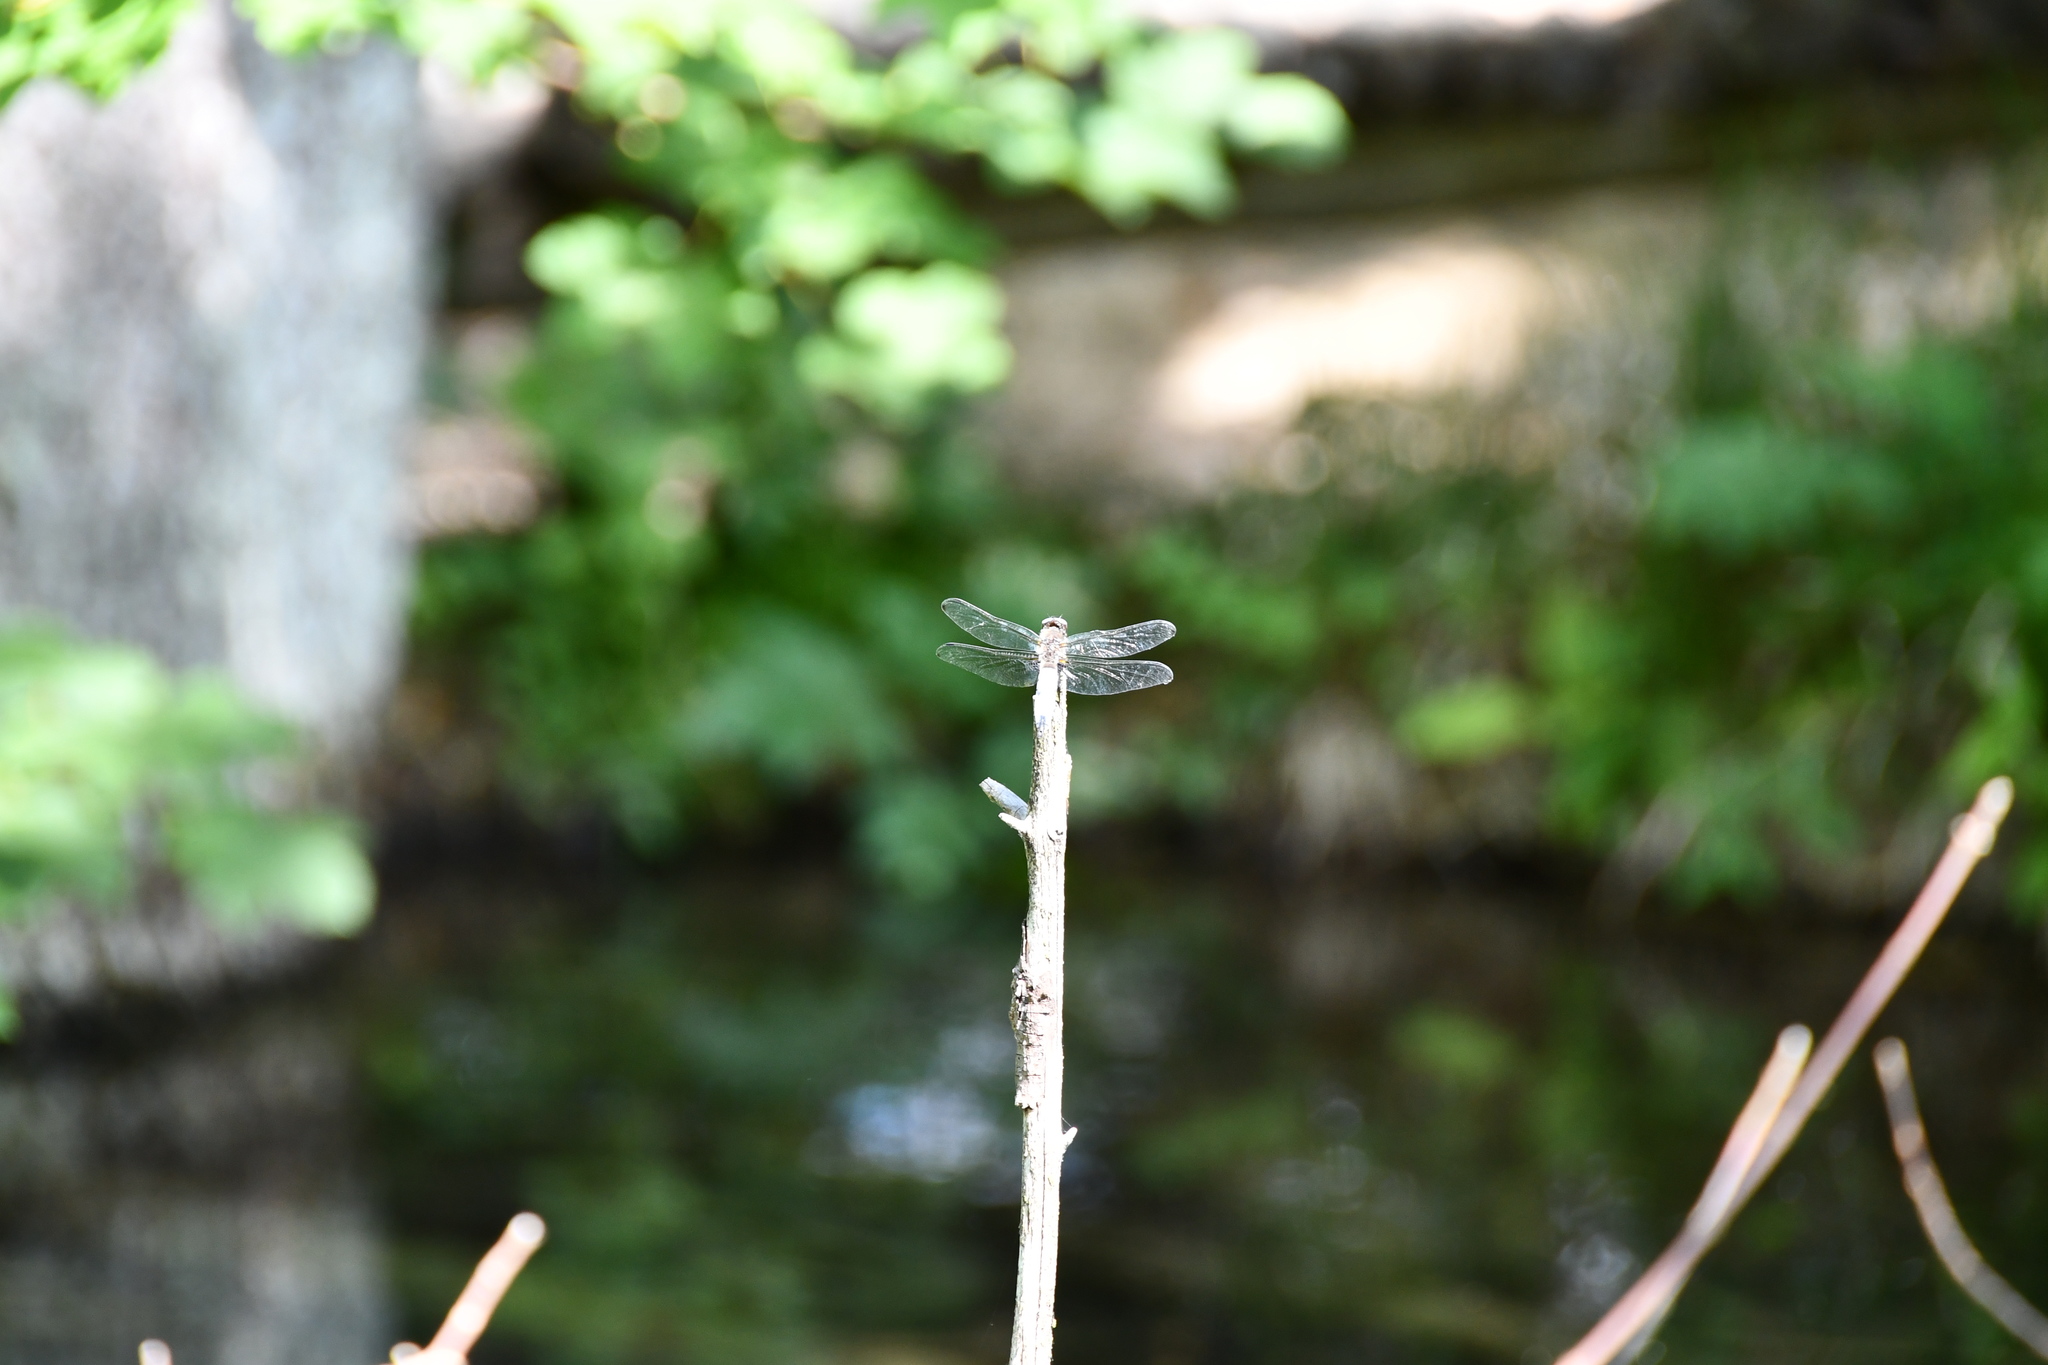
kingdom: Animalia
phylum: Arthropoda
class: Insecta
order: Odonata
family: Libellulidae
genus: Libellula
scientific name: Libellula fulva
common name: Blue chaser
